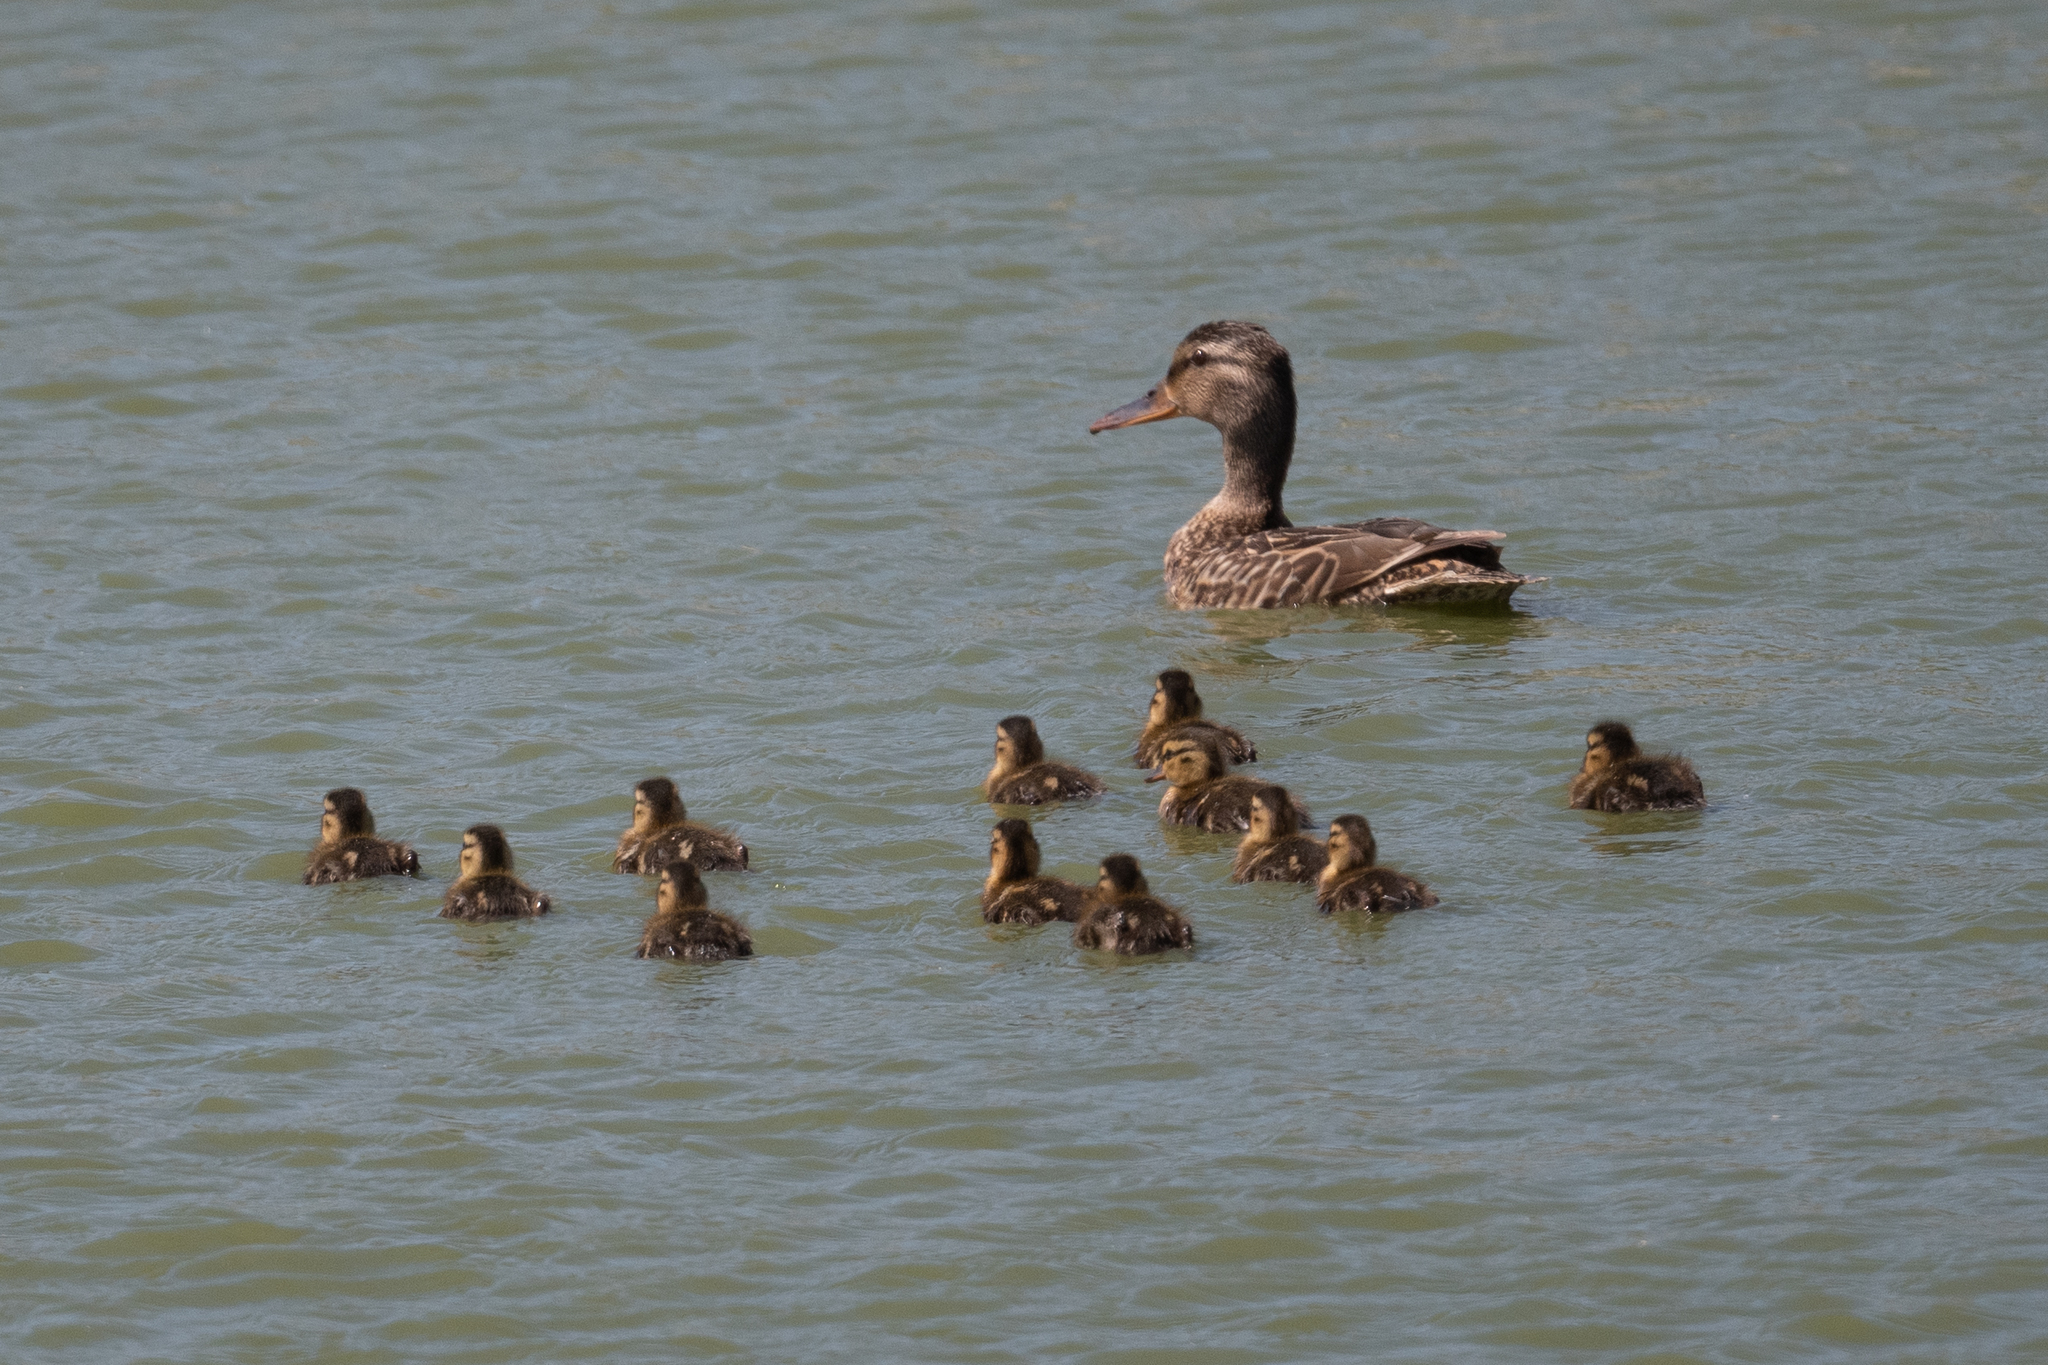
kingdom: Animalia
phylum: Chordata
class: Aves
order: Anseriformes
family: Anatidae
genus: Anas
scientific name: Anas platyrhynchos
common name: Mallard
